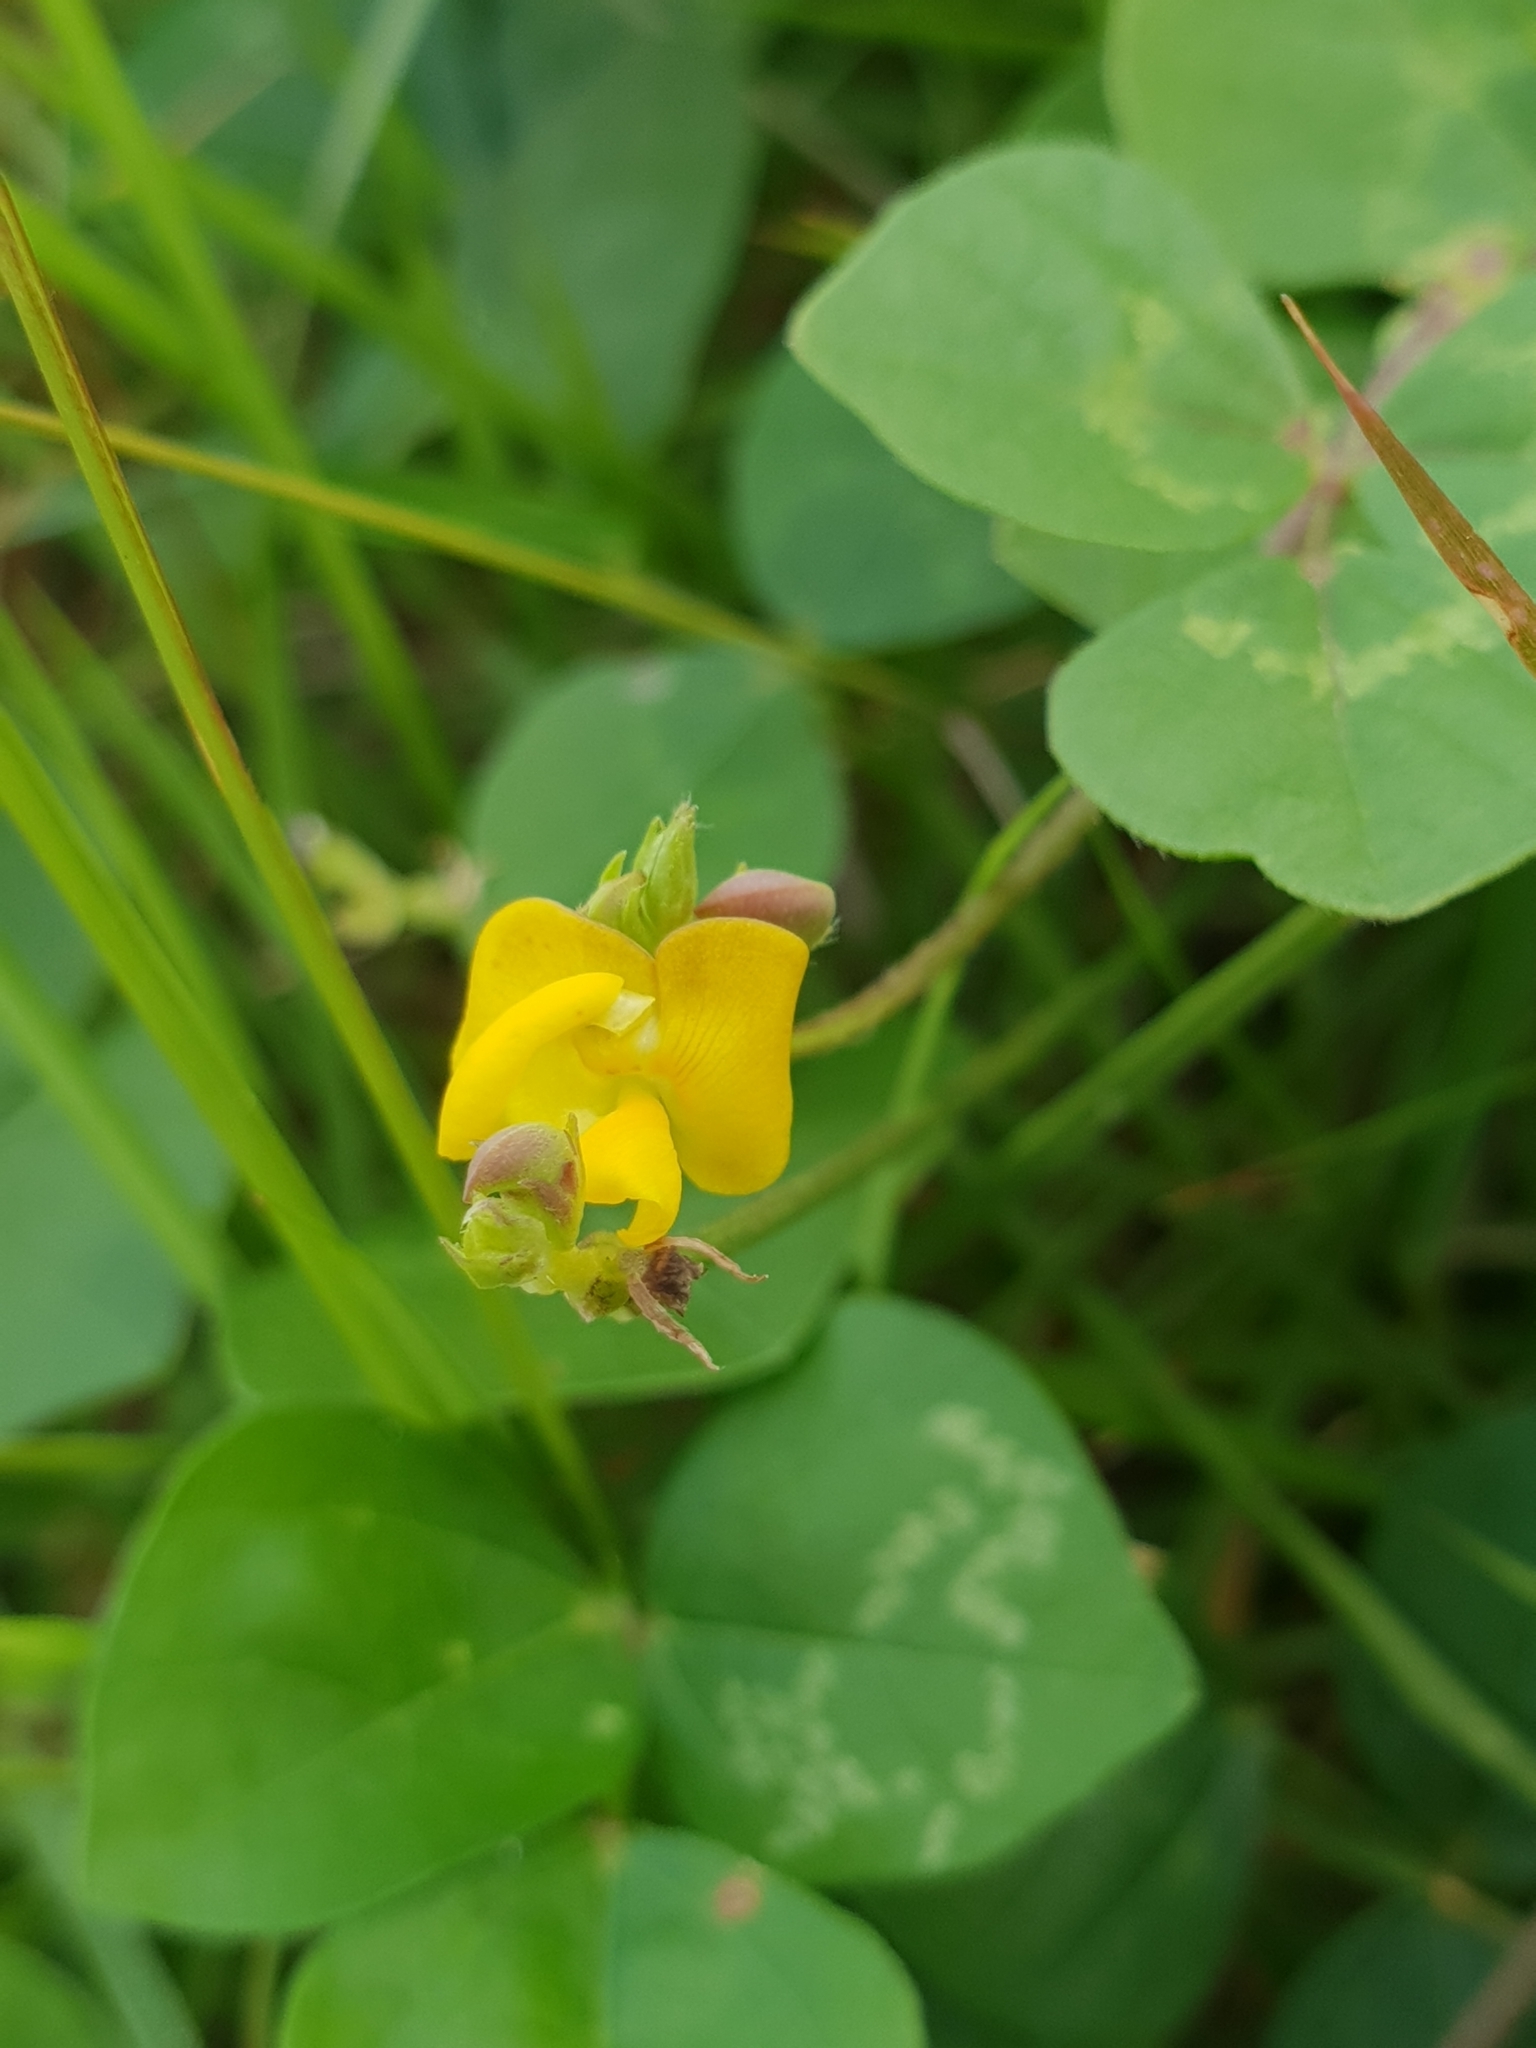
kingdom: Plantae
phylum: Tracheophyta
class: Magnoliopsida
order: Fabales
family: Fabaceae
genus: Vigna
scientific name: Vigna umbellata
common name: Oriental-bean
